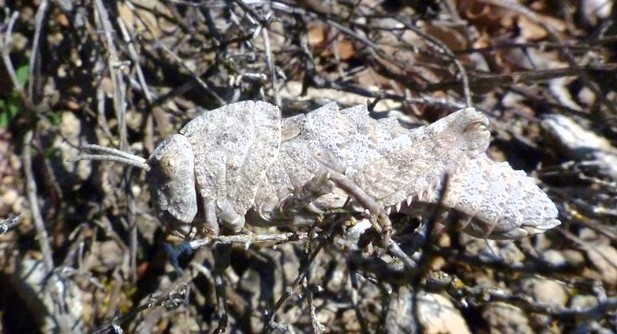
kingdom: Animalia
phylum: Arthropoda
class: Insecta
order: Orthoptera
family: Pamphagidae
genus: Ocnerodes
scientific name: Ocnerodes brunnerii
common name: Brunner's stone grasshopper
